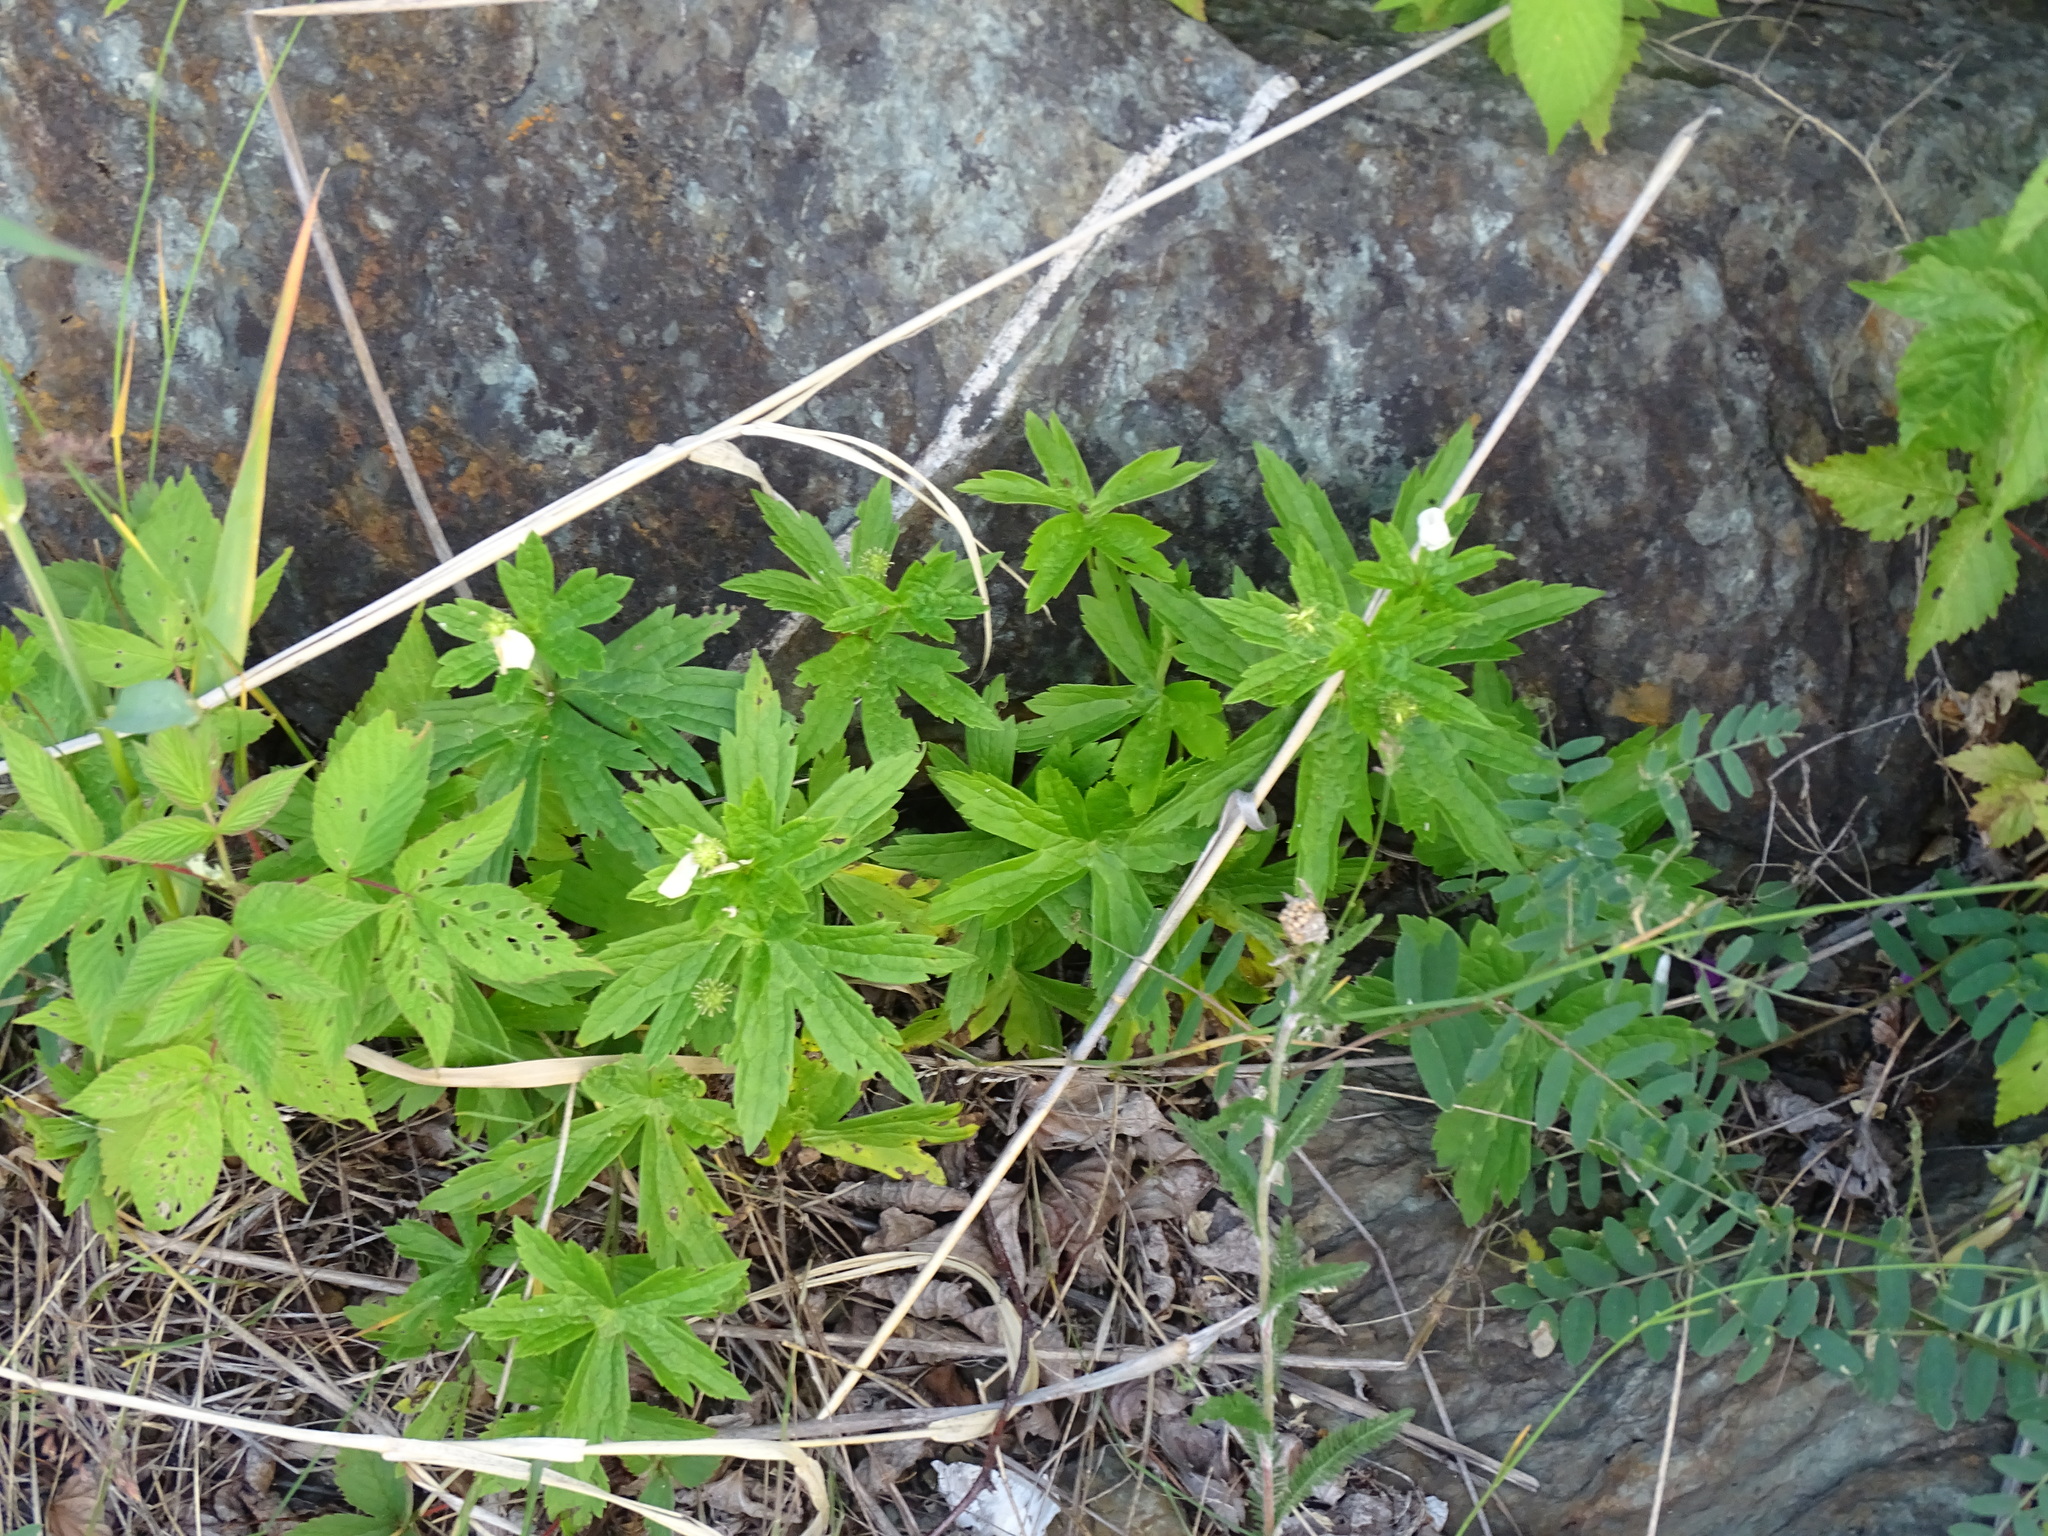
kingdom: Plantae
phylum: Tracheophyta
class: Magnoliopsida
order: Ranunculales
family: Ranunculaceae
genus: Anemonastrum
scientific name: Anemonastrum canadense
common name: Canada anemone
